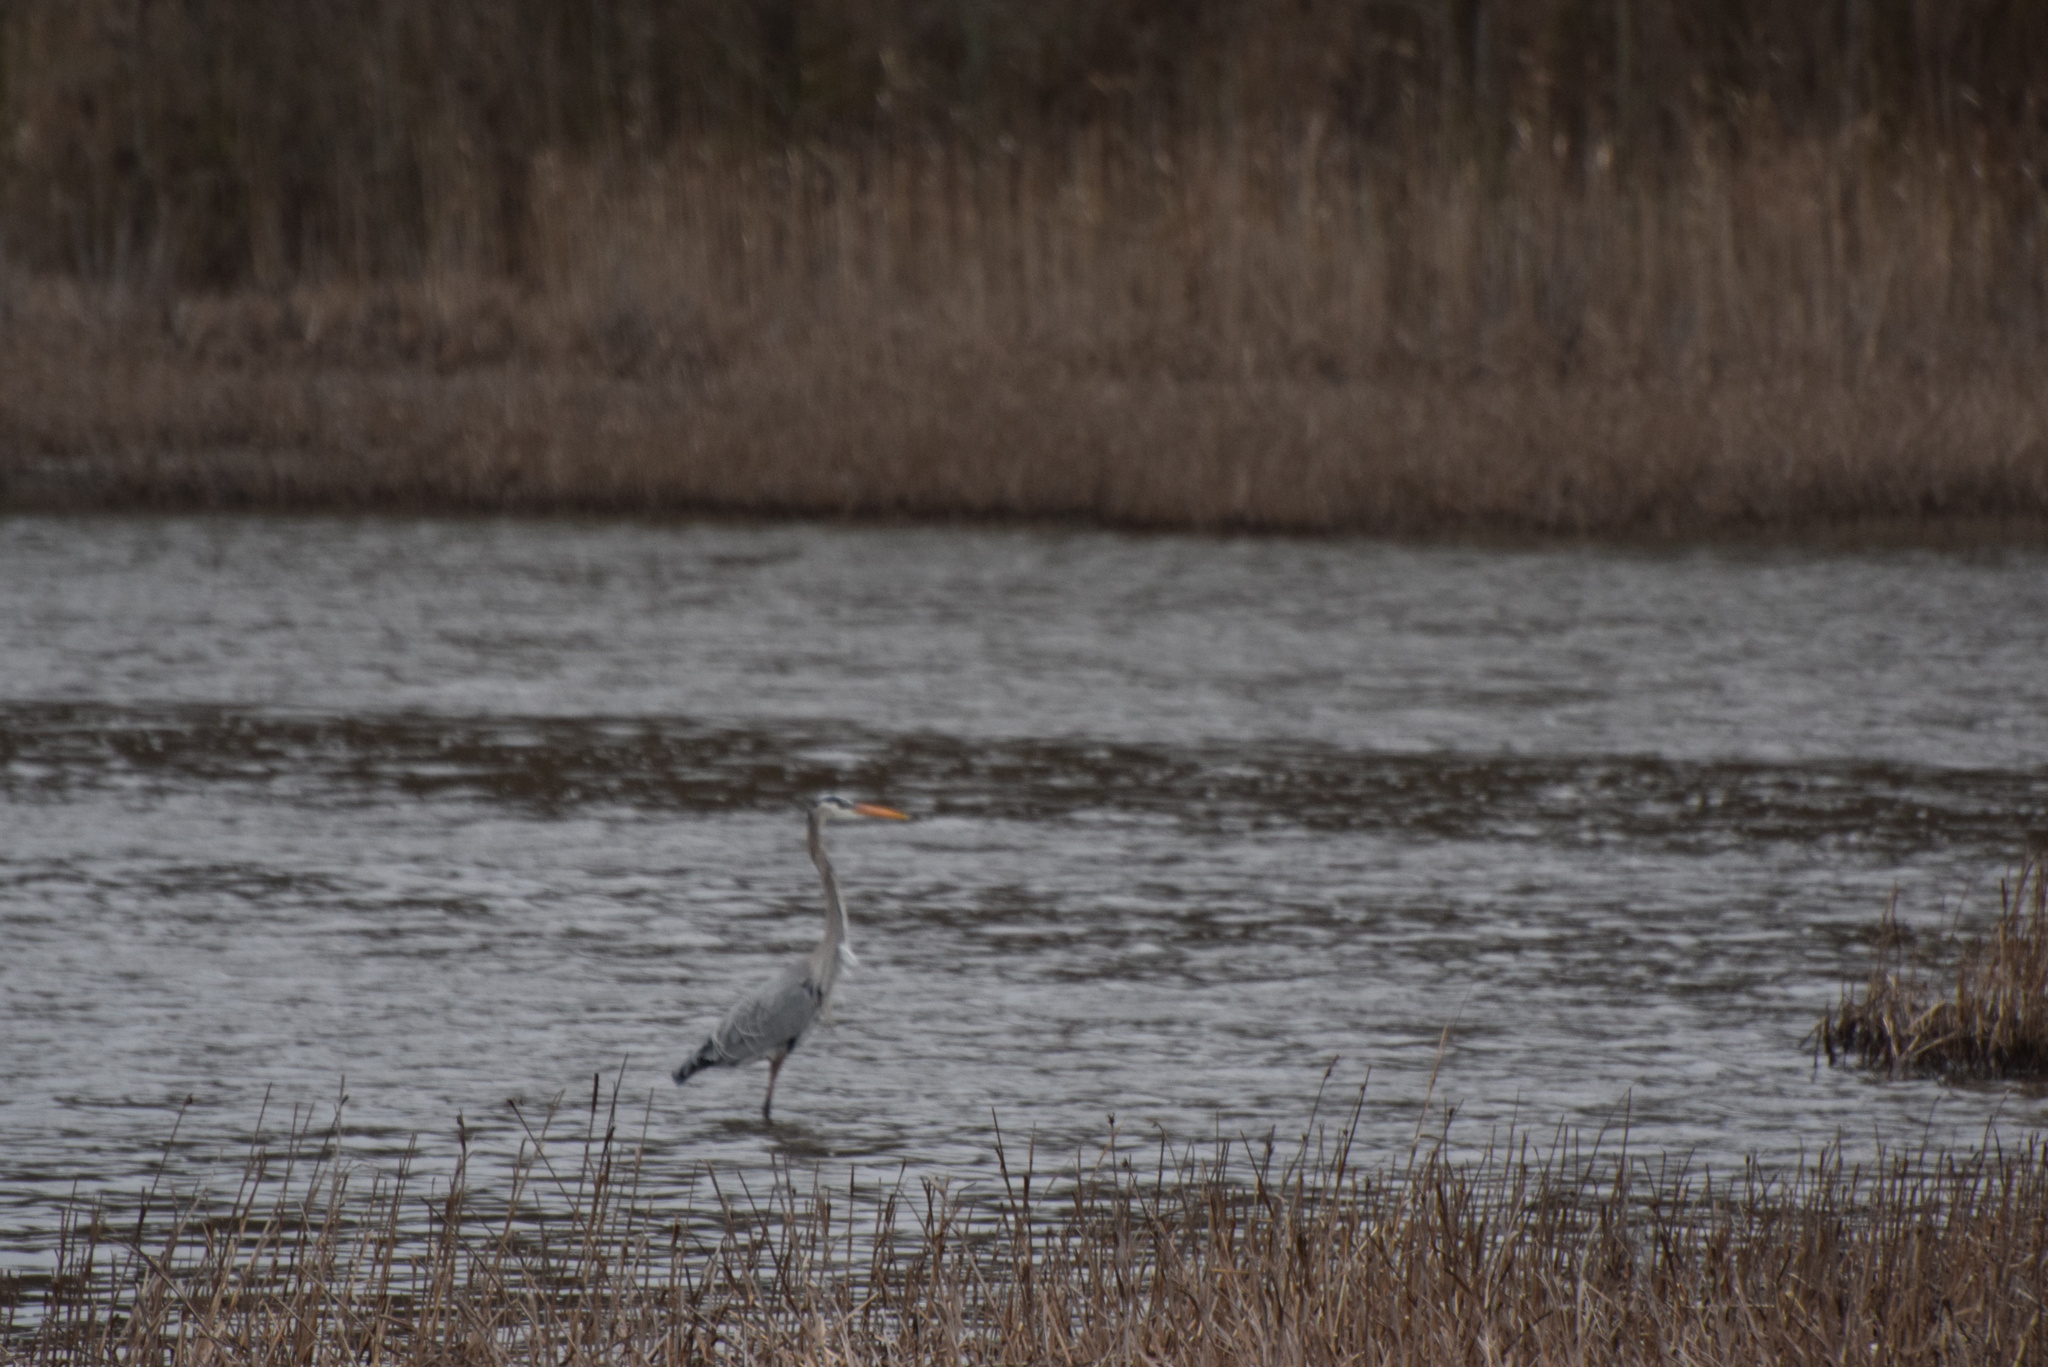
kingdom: Animalia
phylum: Chordata
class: Aves
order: Pelecaniformes
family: Ardeidae
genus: Ardea
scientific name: Ardea herodias
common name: Great blue heron
